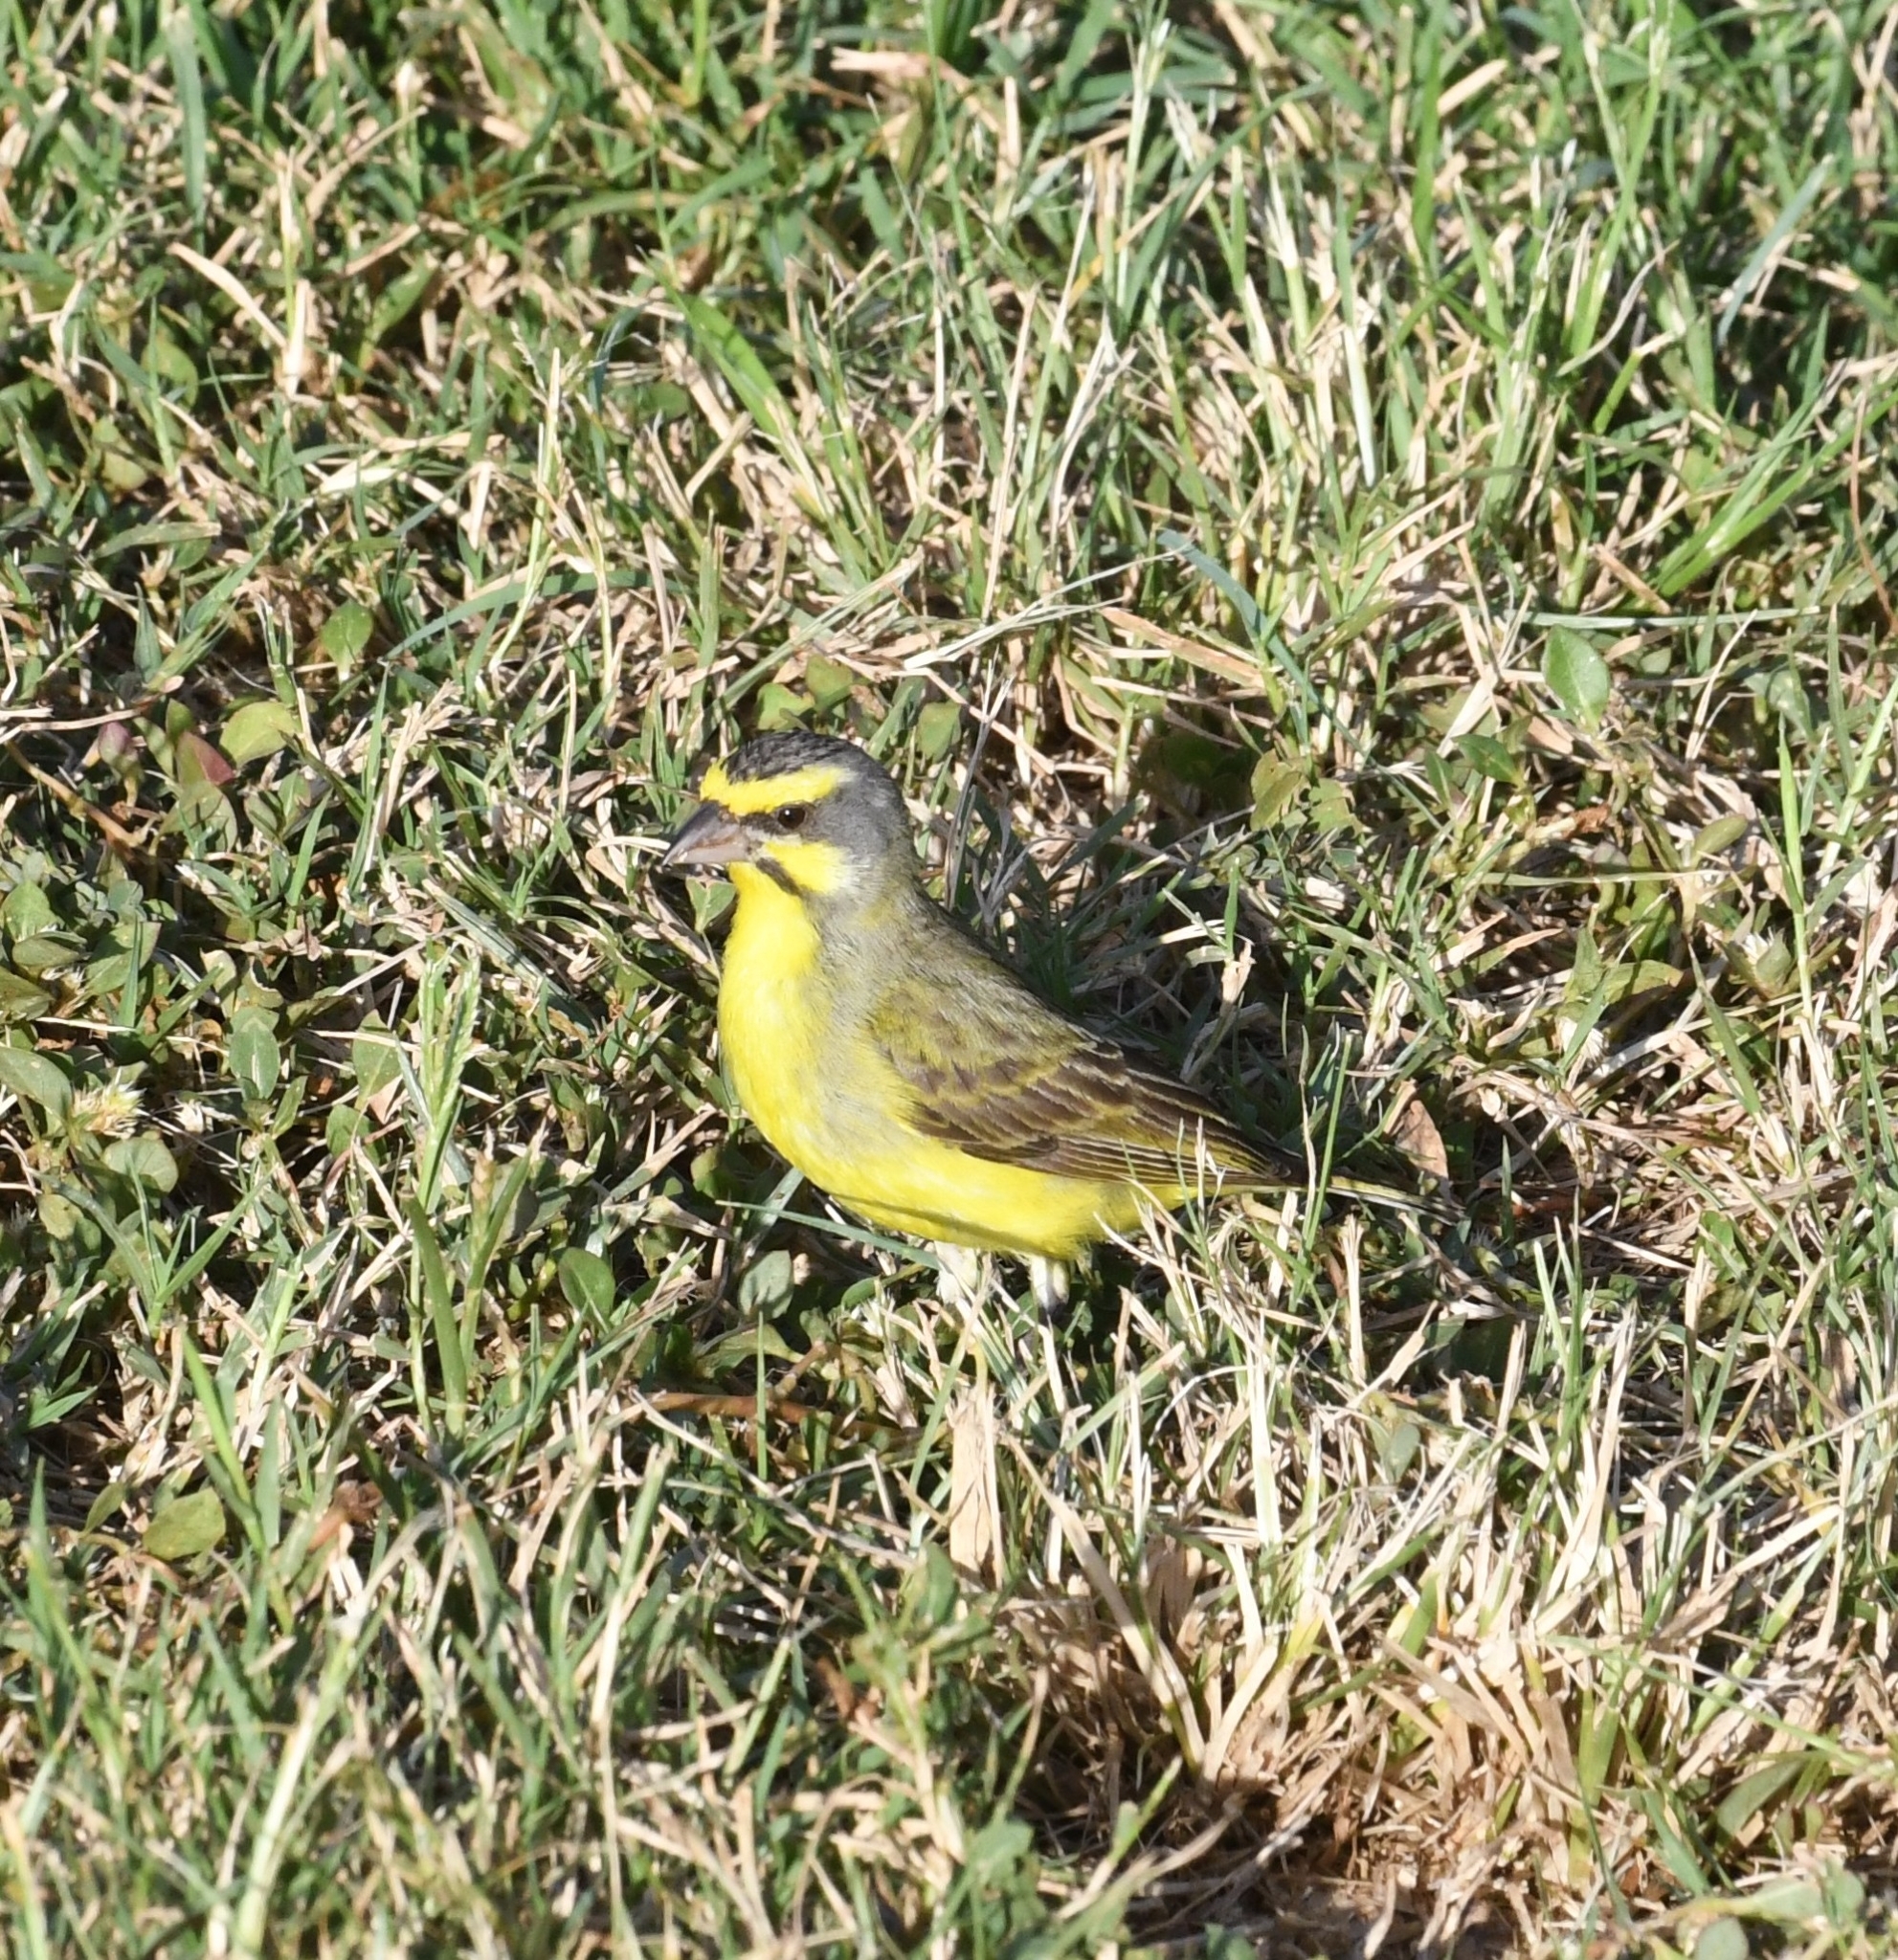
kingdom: Animalia
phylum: Chordata
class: Aves
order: Passeriformes
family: Fringillidae
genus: Crithagra
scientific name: Crithagra mozambica
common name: Yellow-fronted canary
